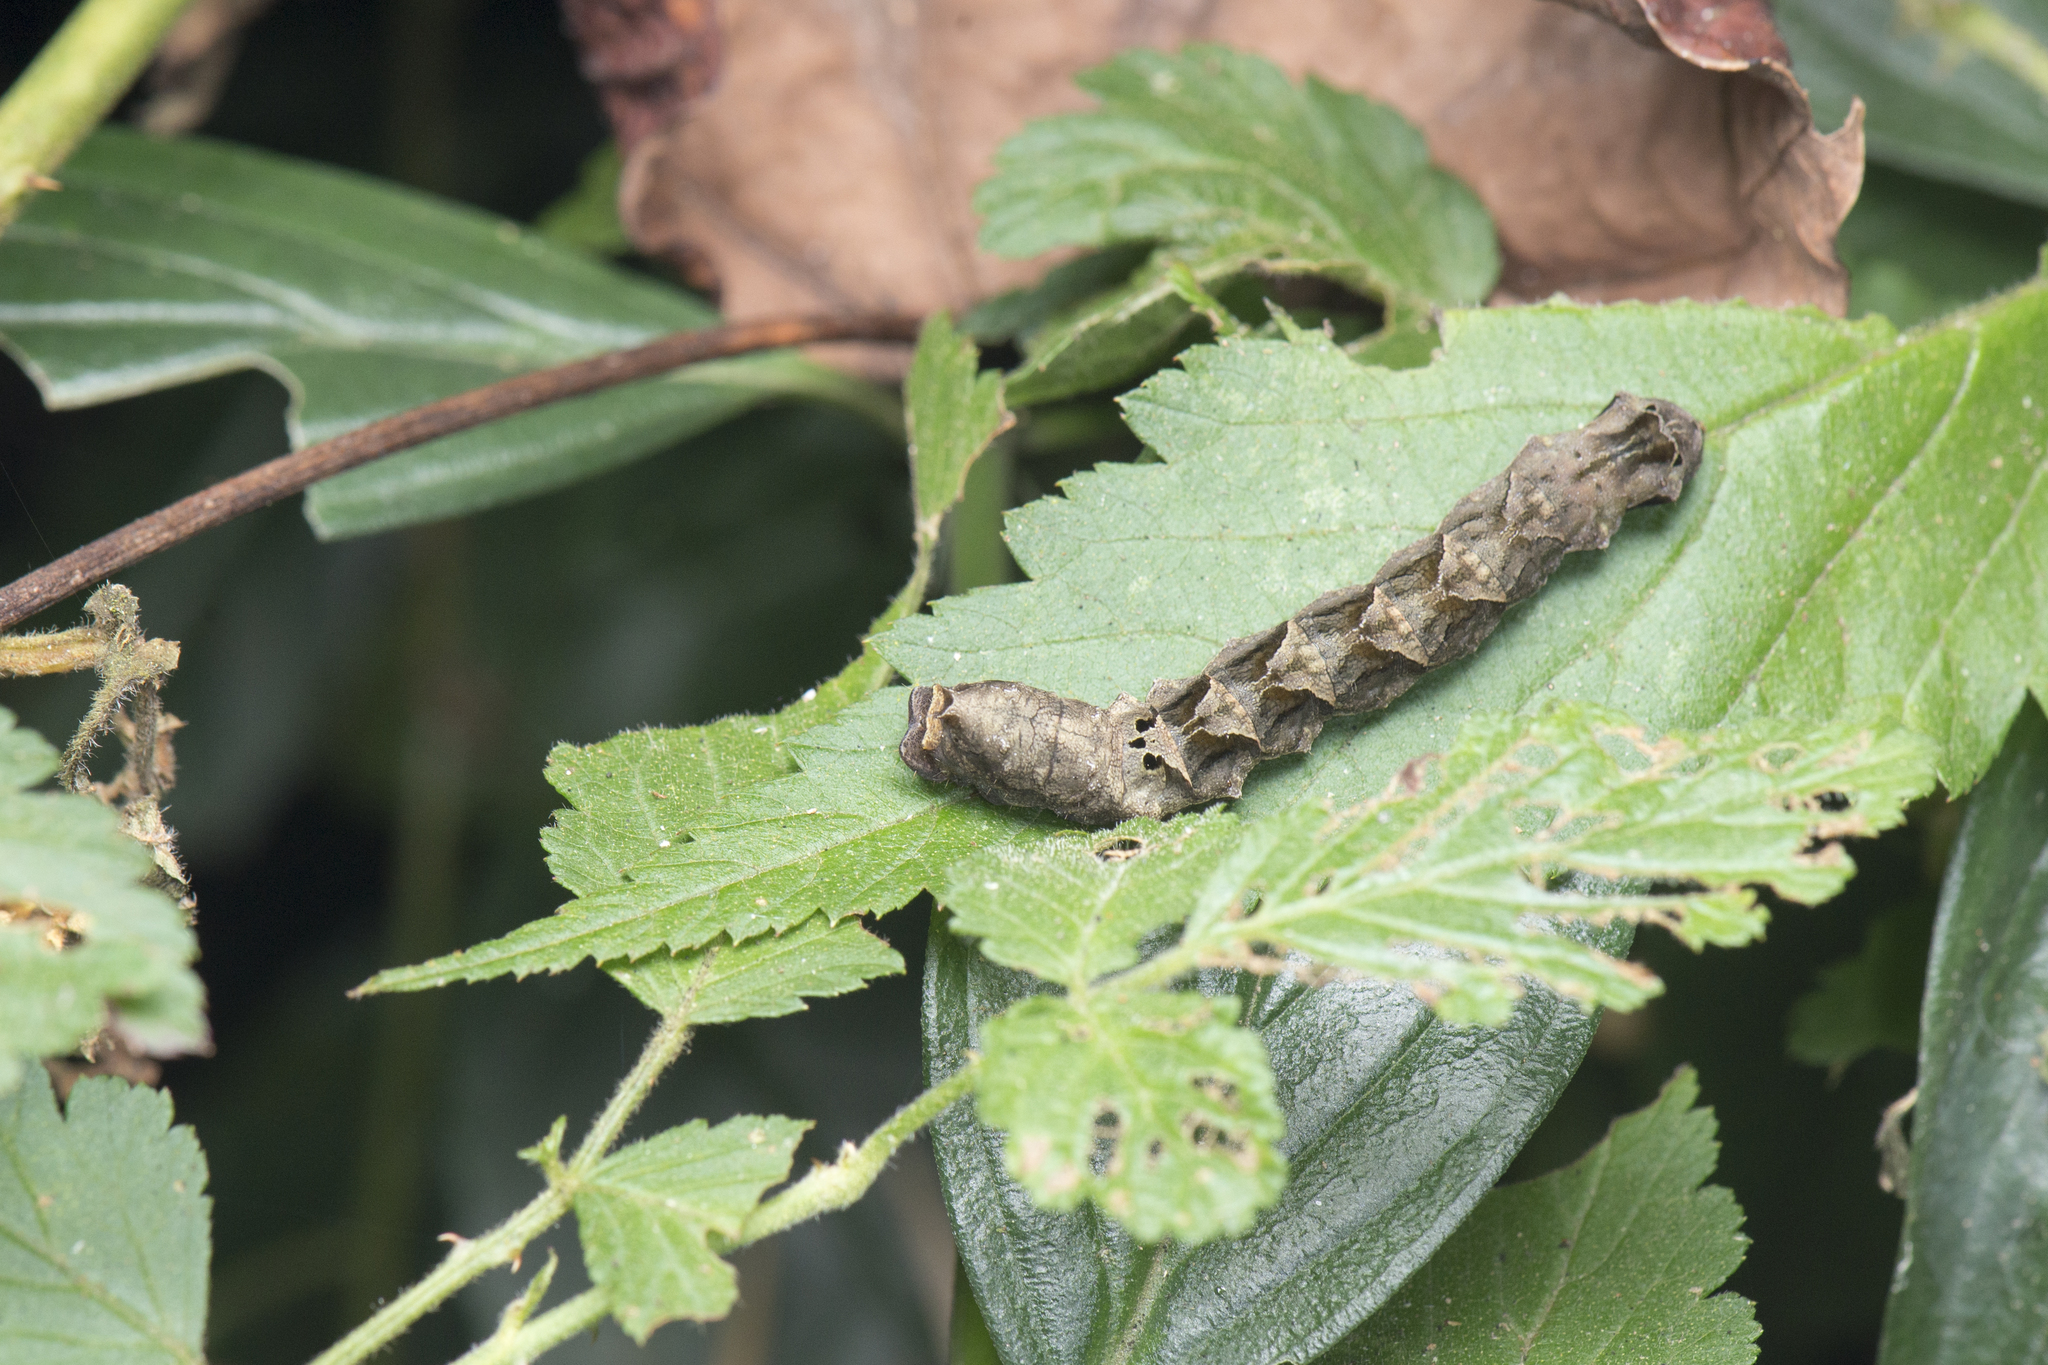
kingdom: Animalia
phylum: Arthropoda
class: Insecta
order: Lepidoptera
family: Drepanidae
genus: Thyatira
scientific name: Thyatira batis
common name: Peach blossom
